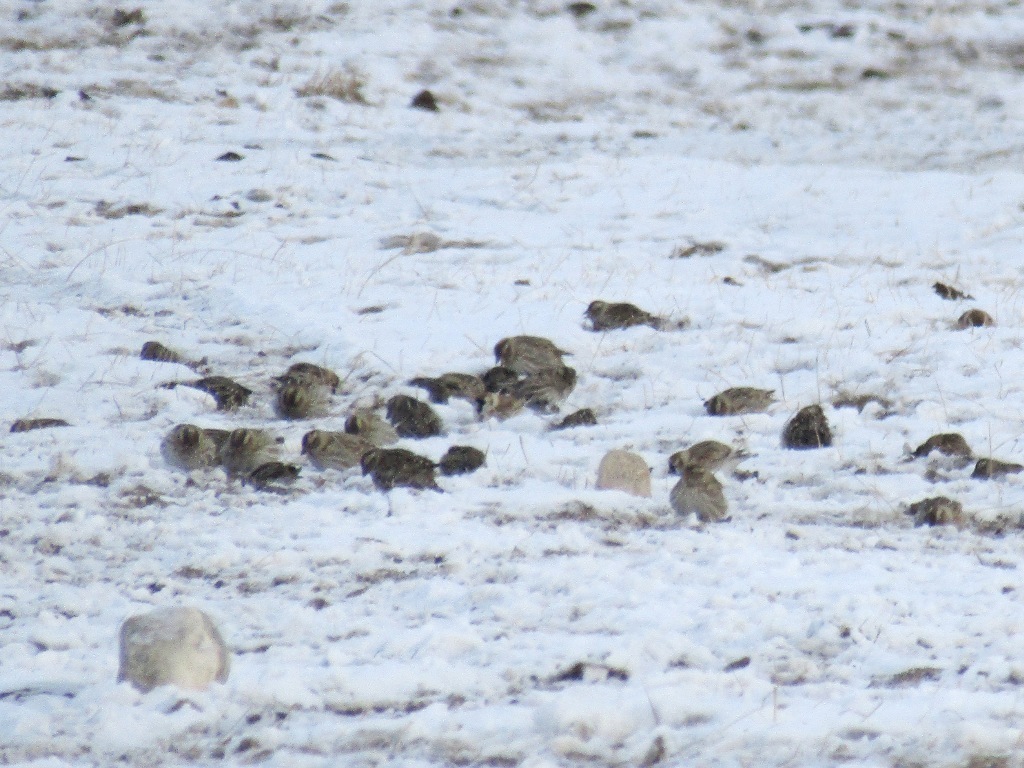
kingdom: Animalia
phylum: Chordata
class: Aves
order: Passeriformes
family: Passeridae
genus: Petronia
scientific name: Petronia petronia
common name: Rock sparrow
